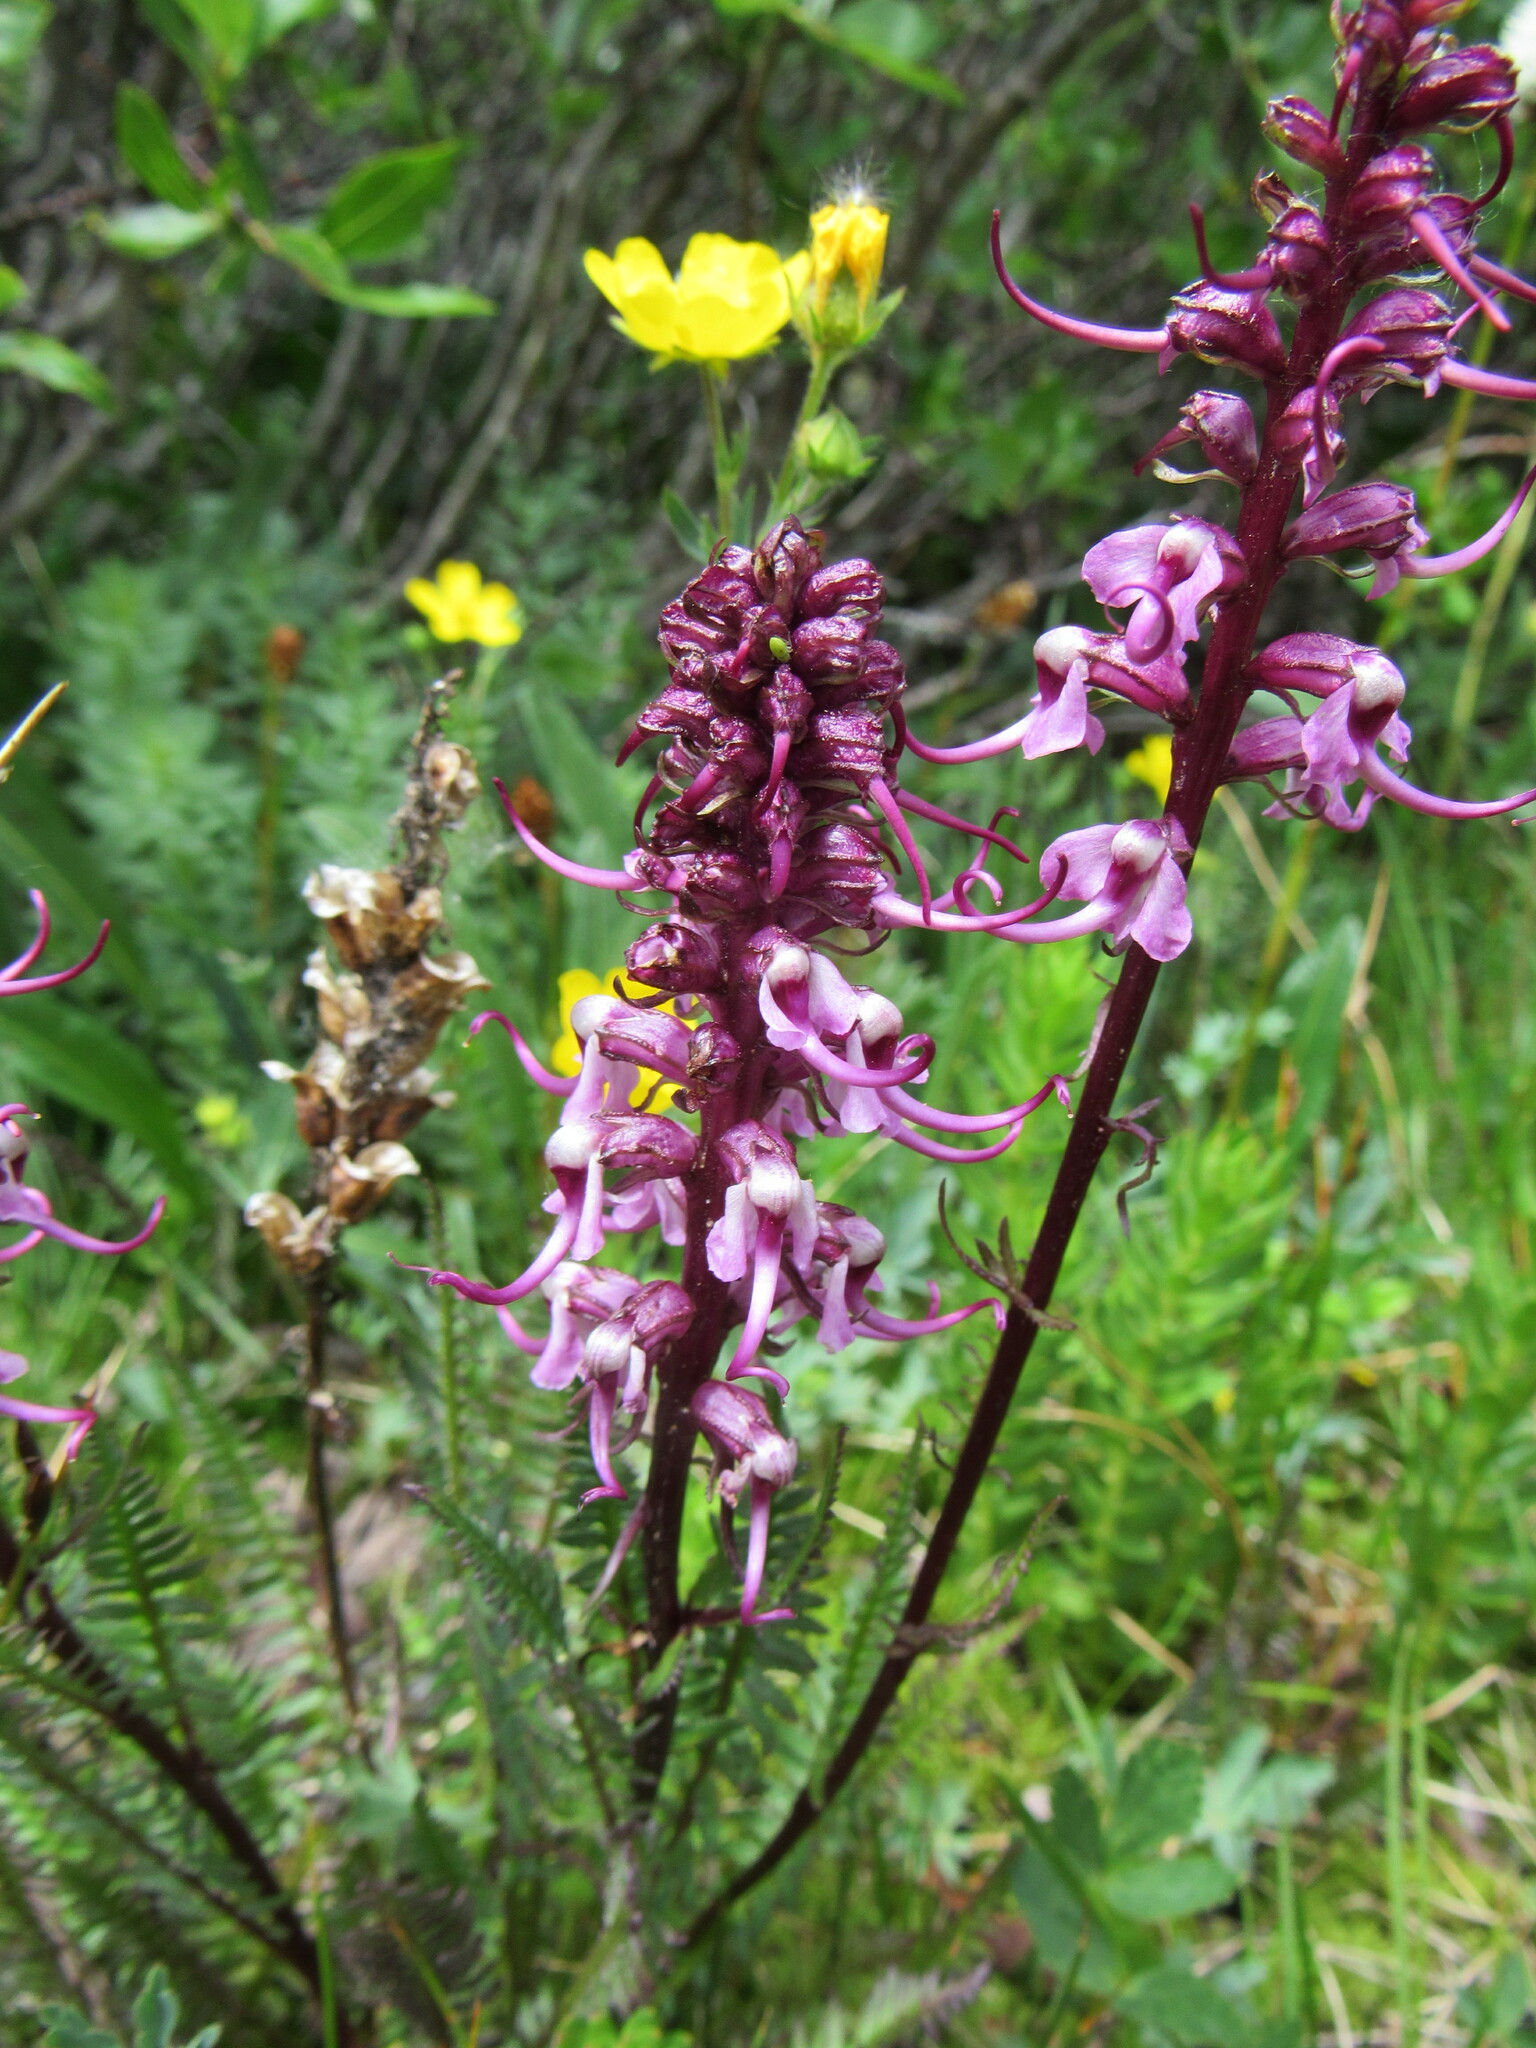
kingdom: Plantae
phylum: Tracheophyta
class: Magnoliopsida
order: Lamiales
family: Orobanchaceae
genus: Pedicularis
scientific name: Pedicularis groenlandica
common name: Elephant's-head
